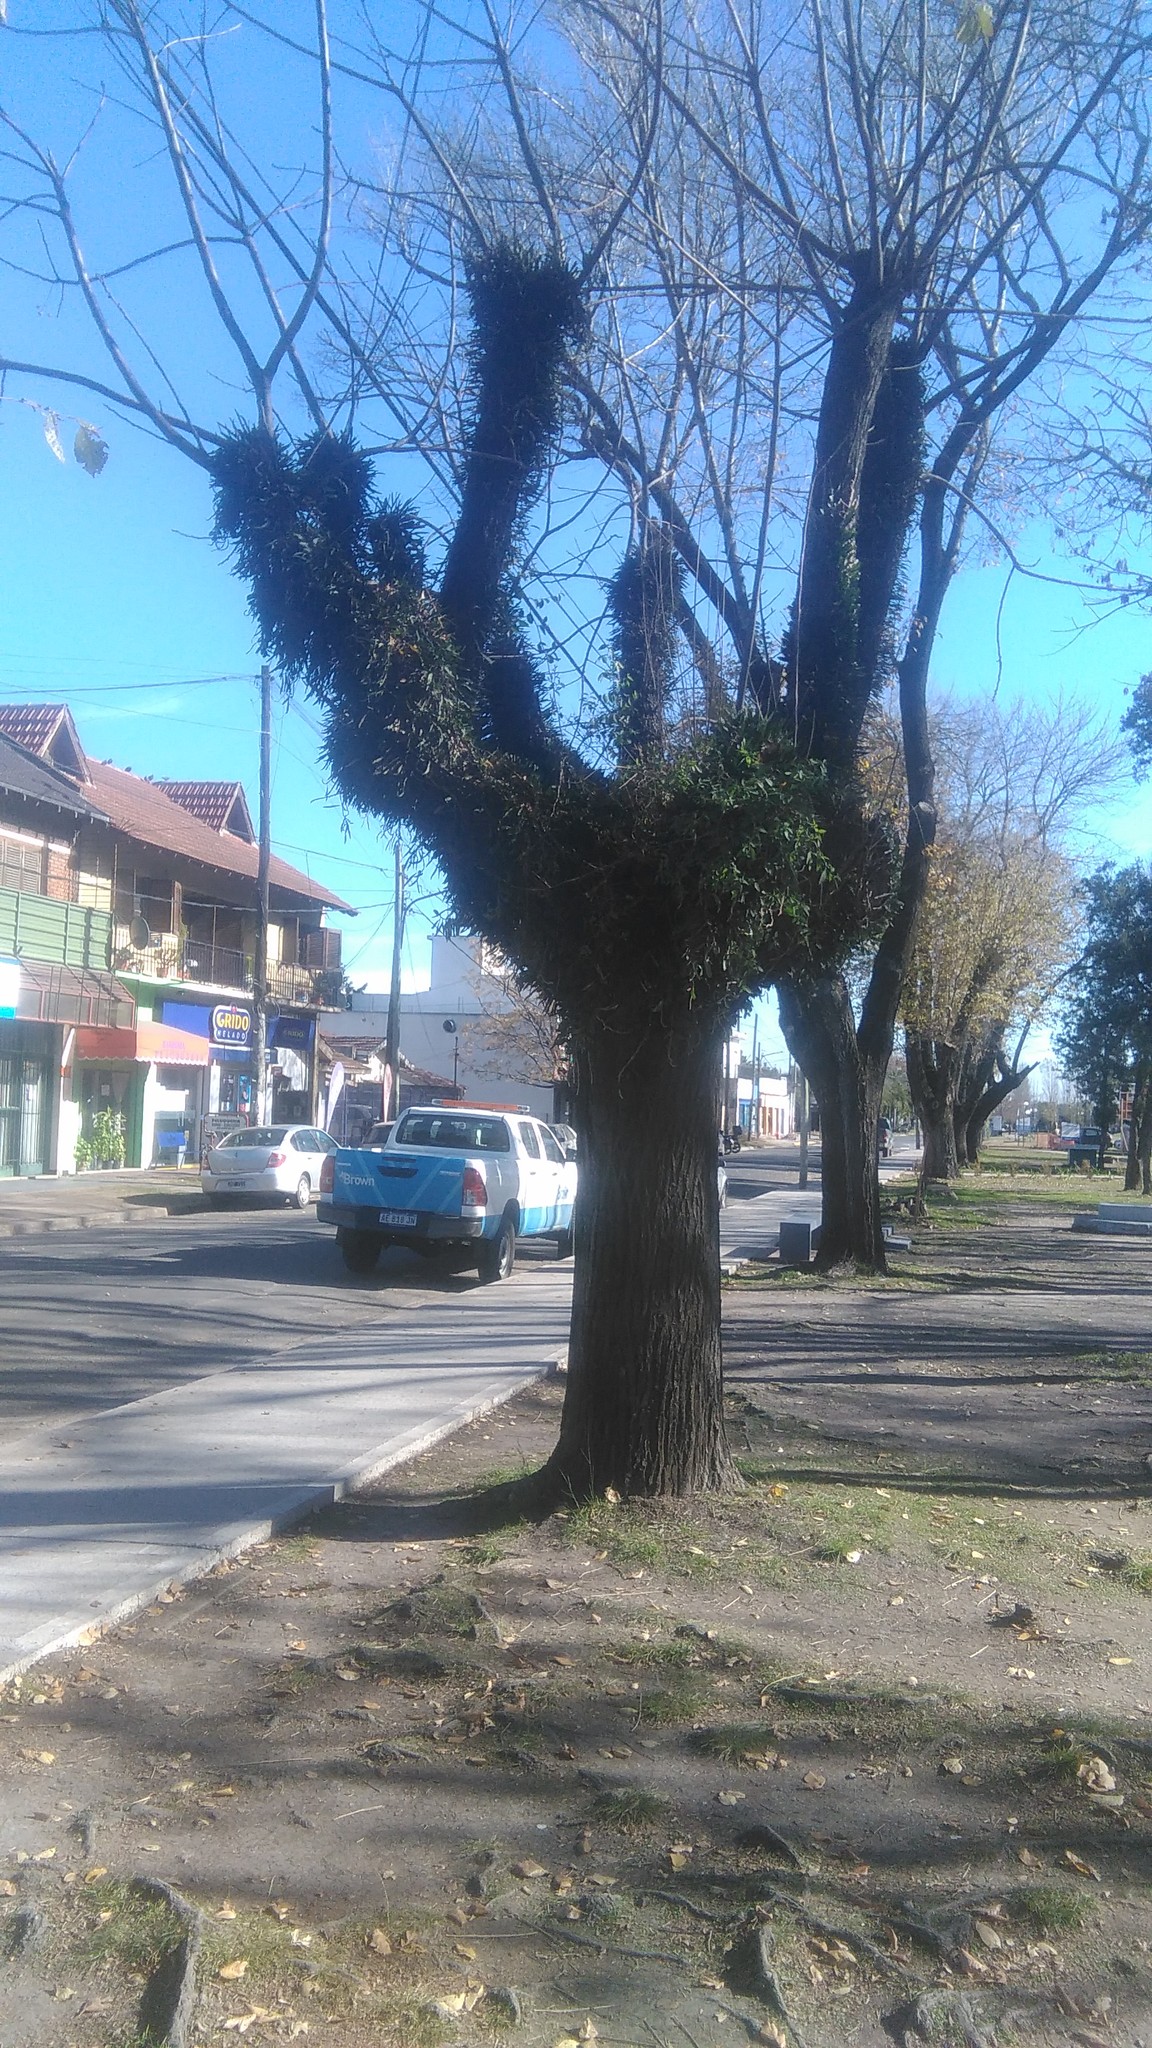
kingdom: Plantae
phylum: Tracheophyta
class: Polypodiopsida
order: Polypodiales
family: Polypodiaceae
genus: Microgramma
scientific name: Microgramma mortoniana
